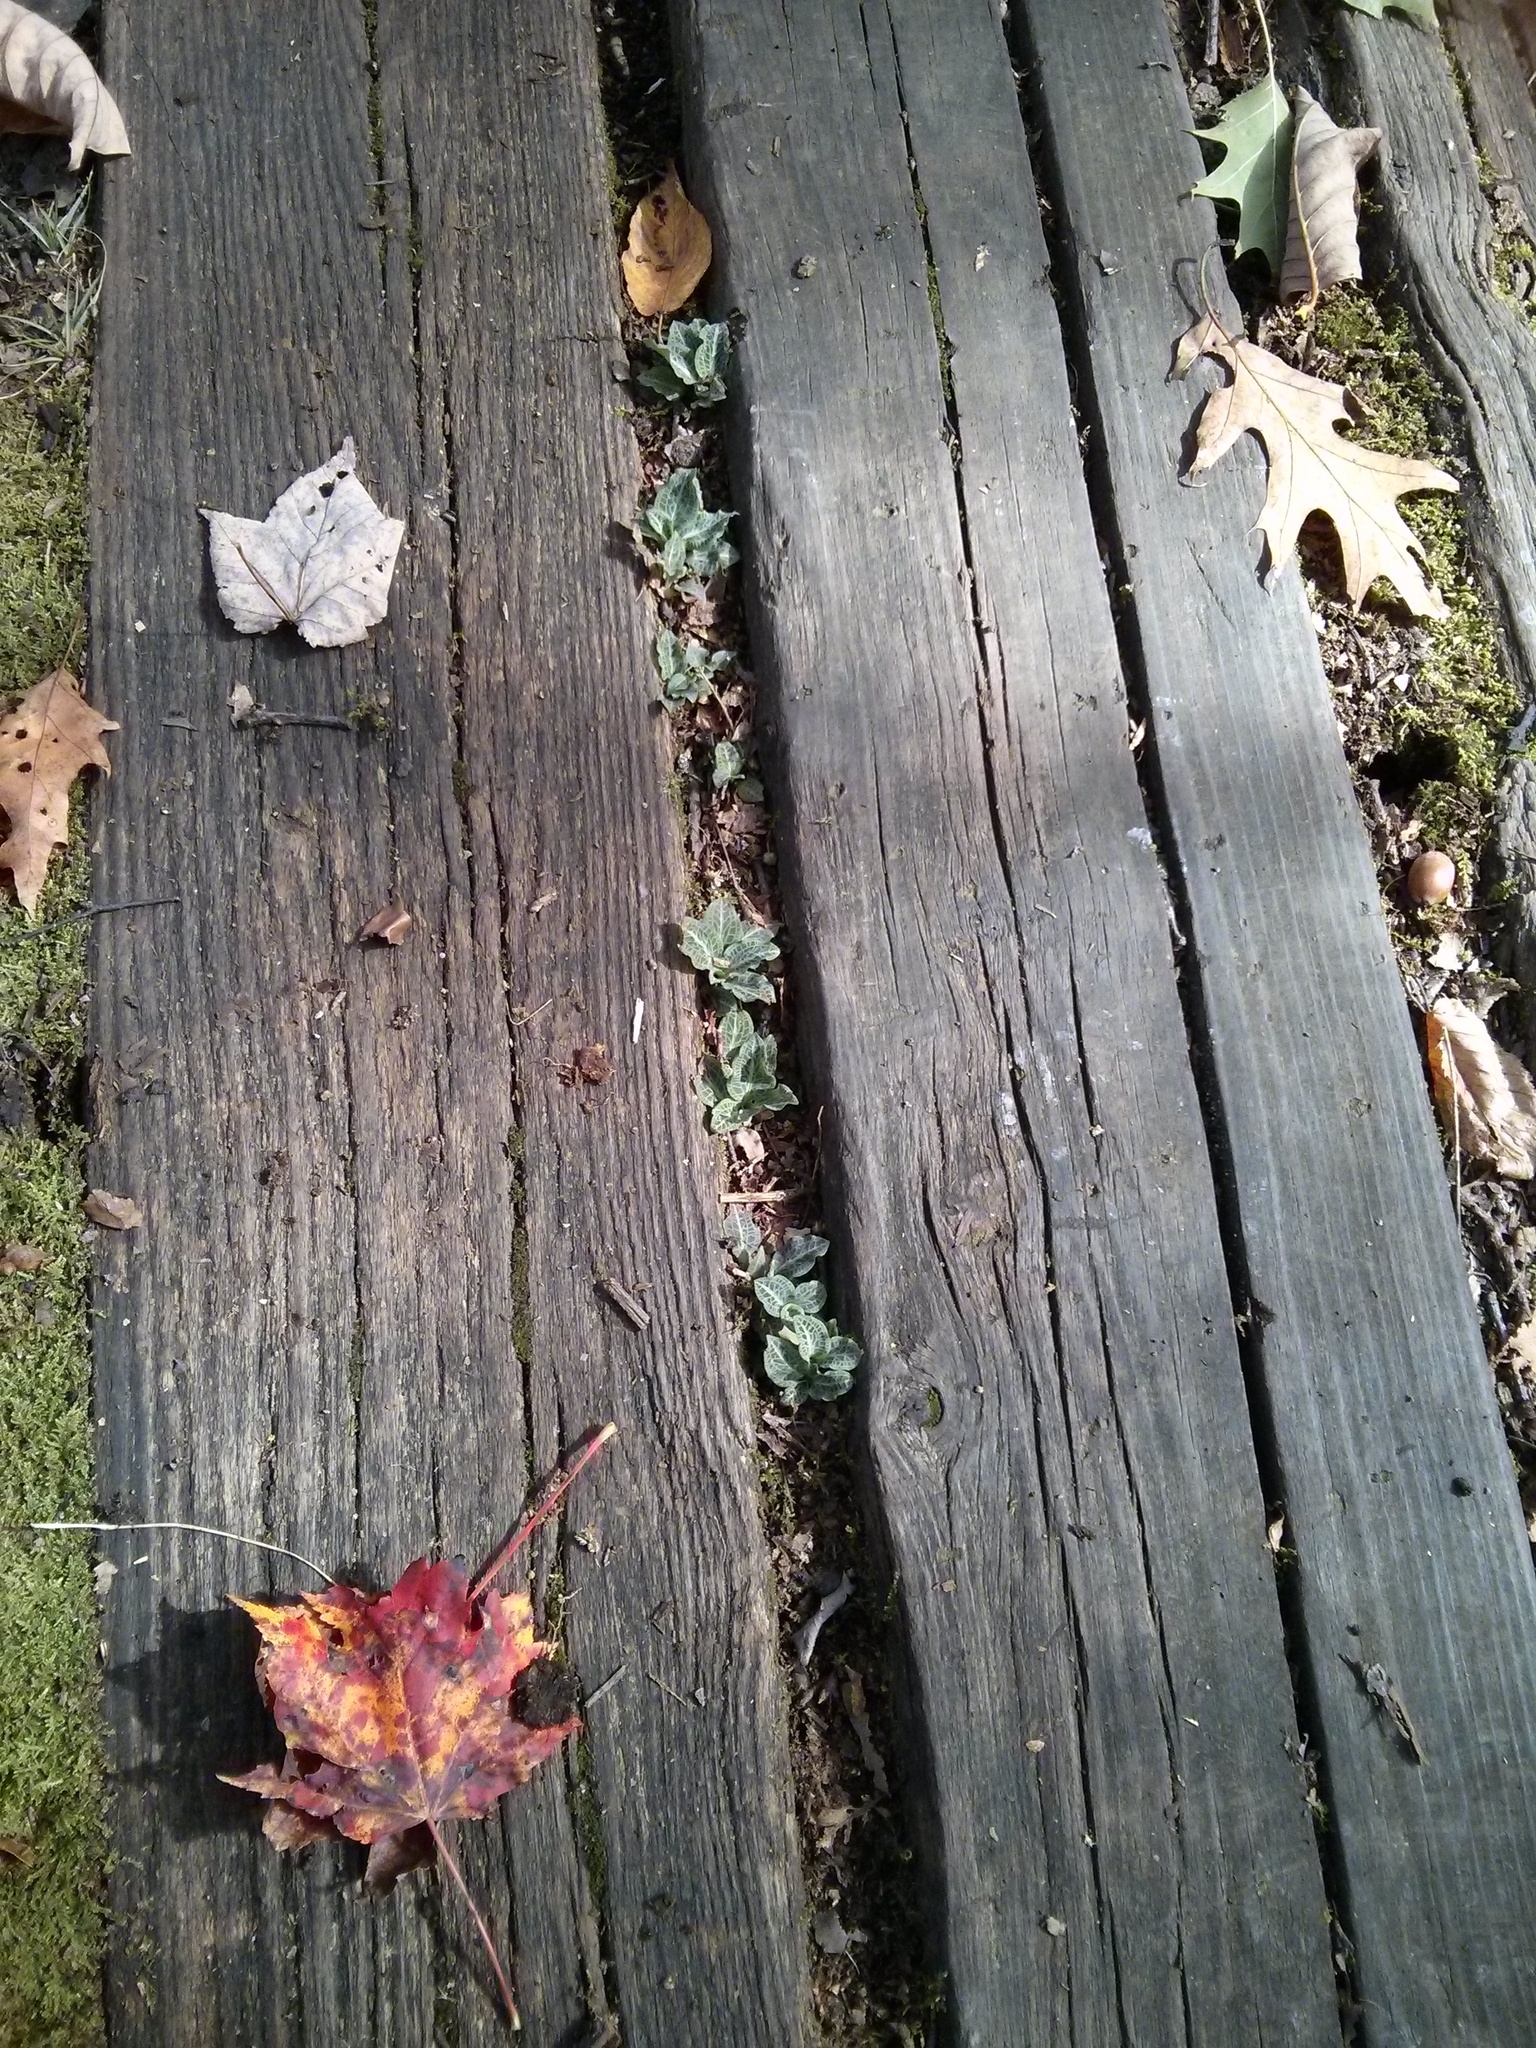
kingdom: Plantae
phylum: Tracheophyta
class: Liliopsida
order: Asparagales
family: Orchidaceae
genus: Goodyera
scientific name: Goodyera pubescens
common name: Downy rattlesnake-plantain
